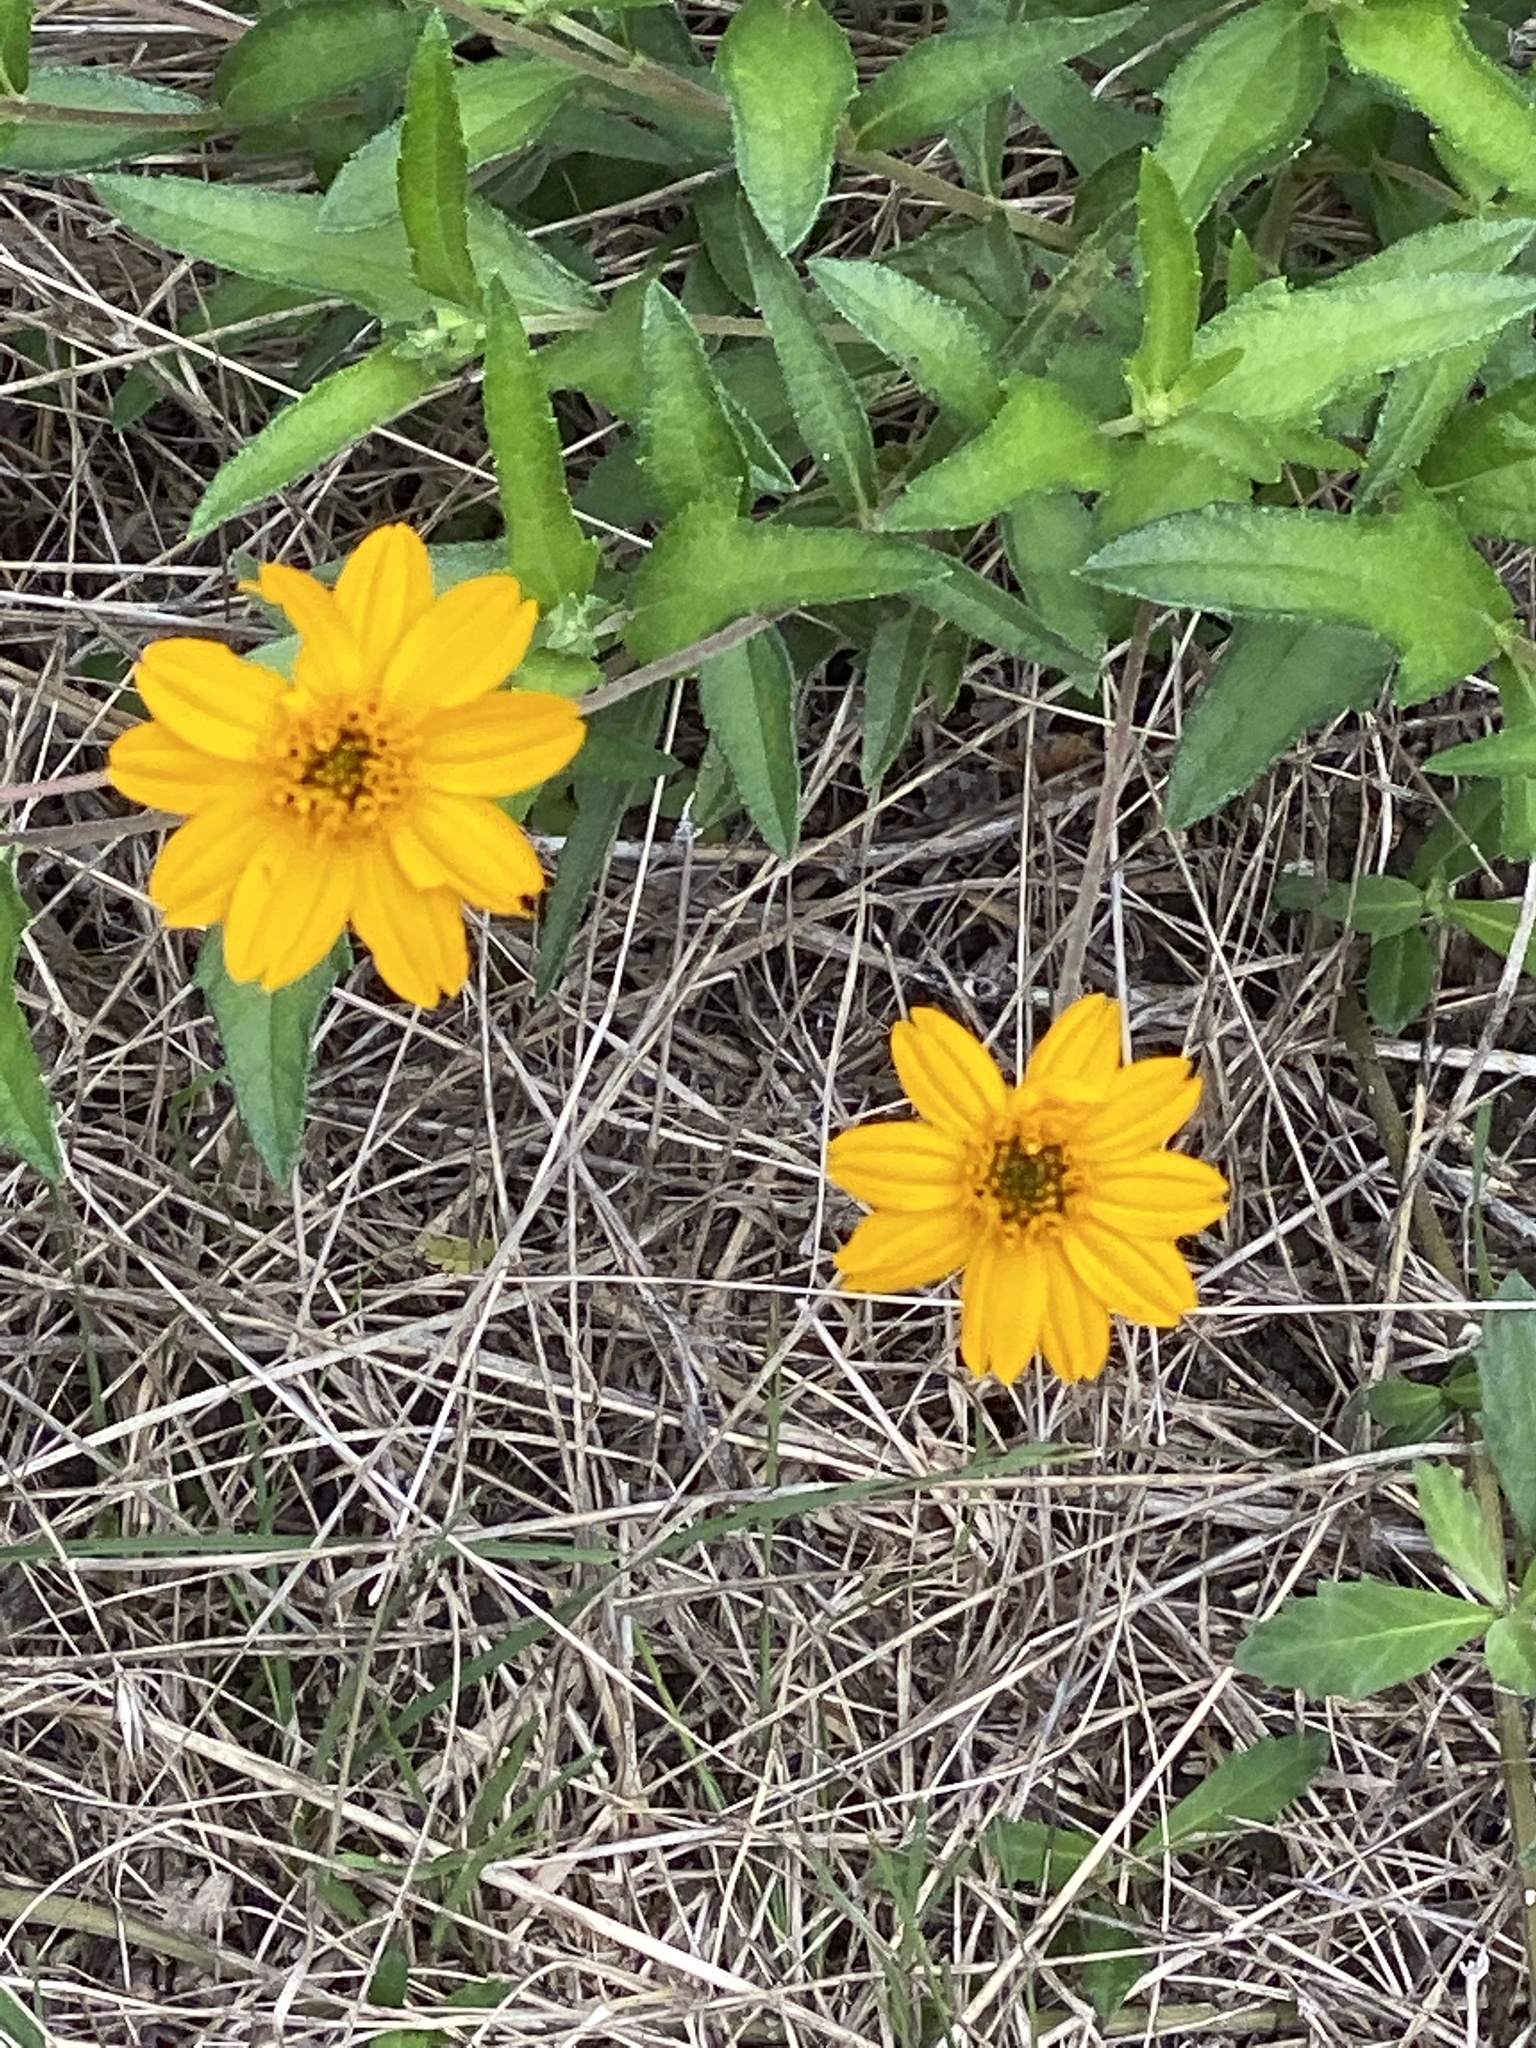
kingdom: Plantae
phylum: Tracheophyta
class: Magnoliopsida
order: Asterales
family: Asteraceae
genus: Wedelia
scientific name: Wedelia acapulcensis
